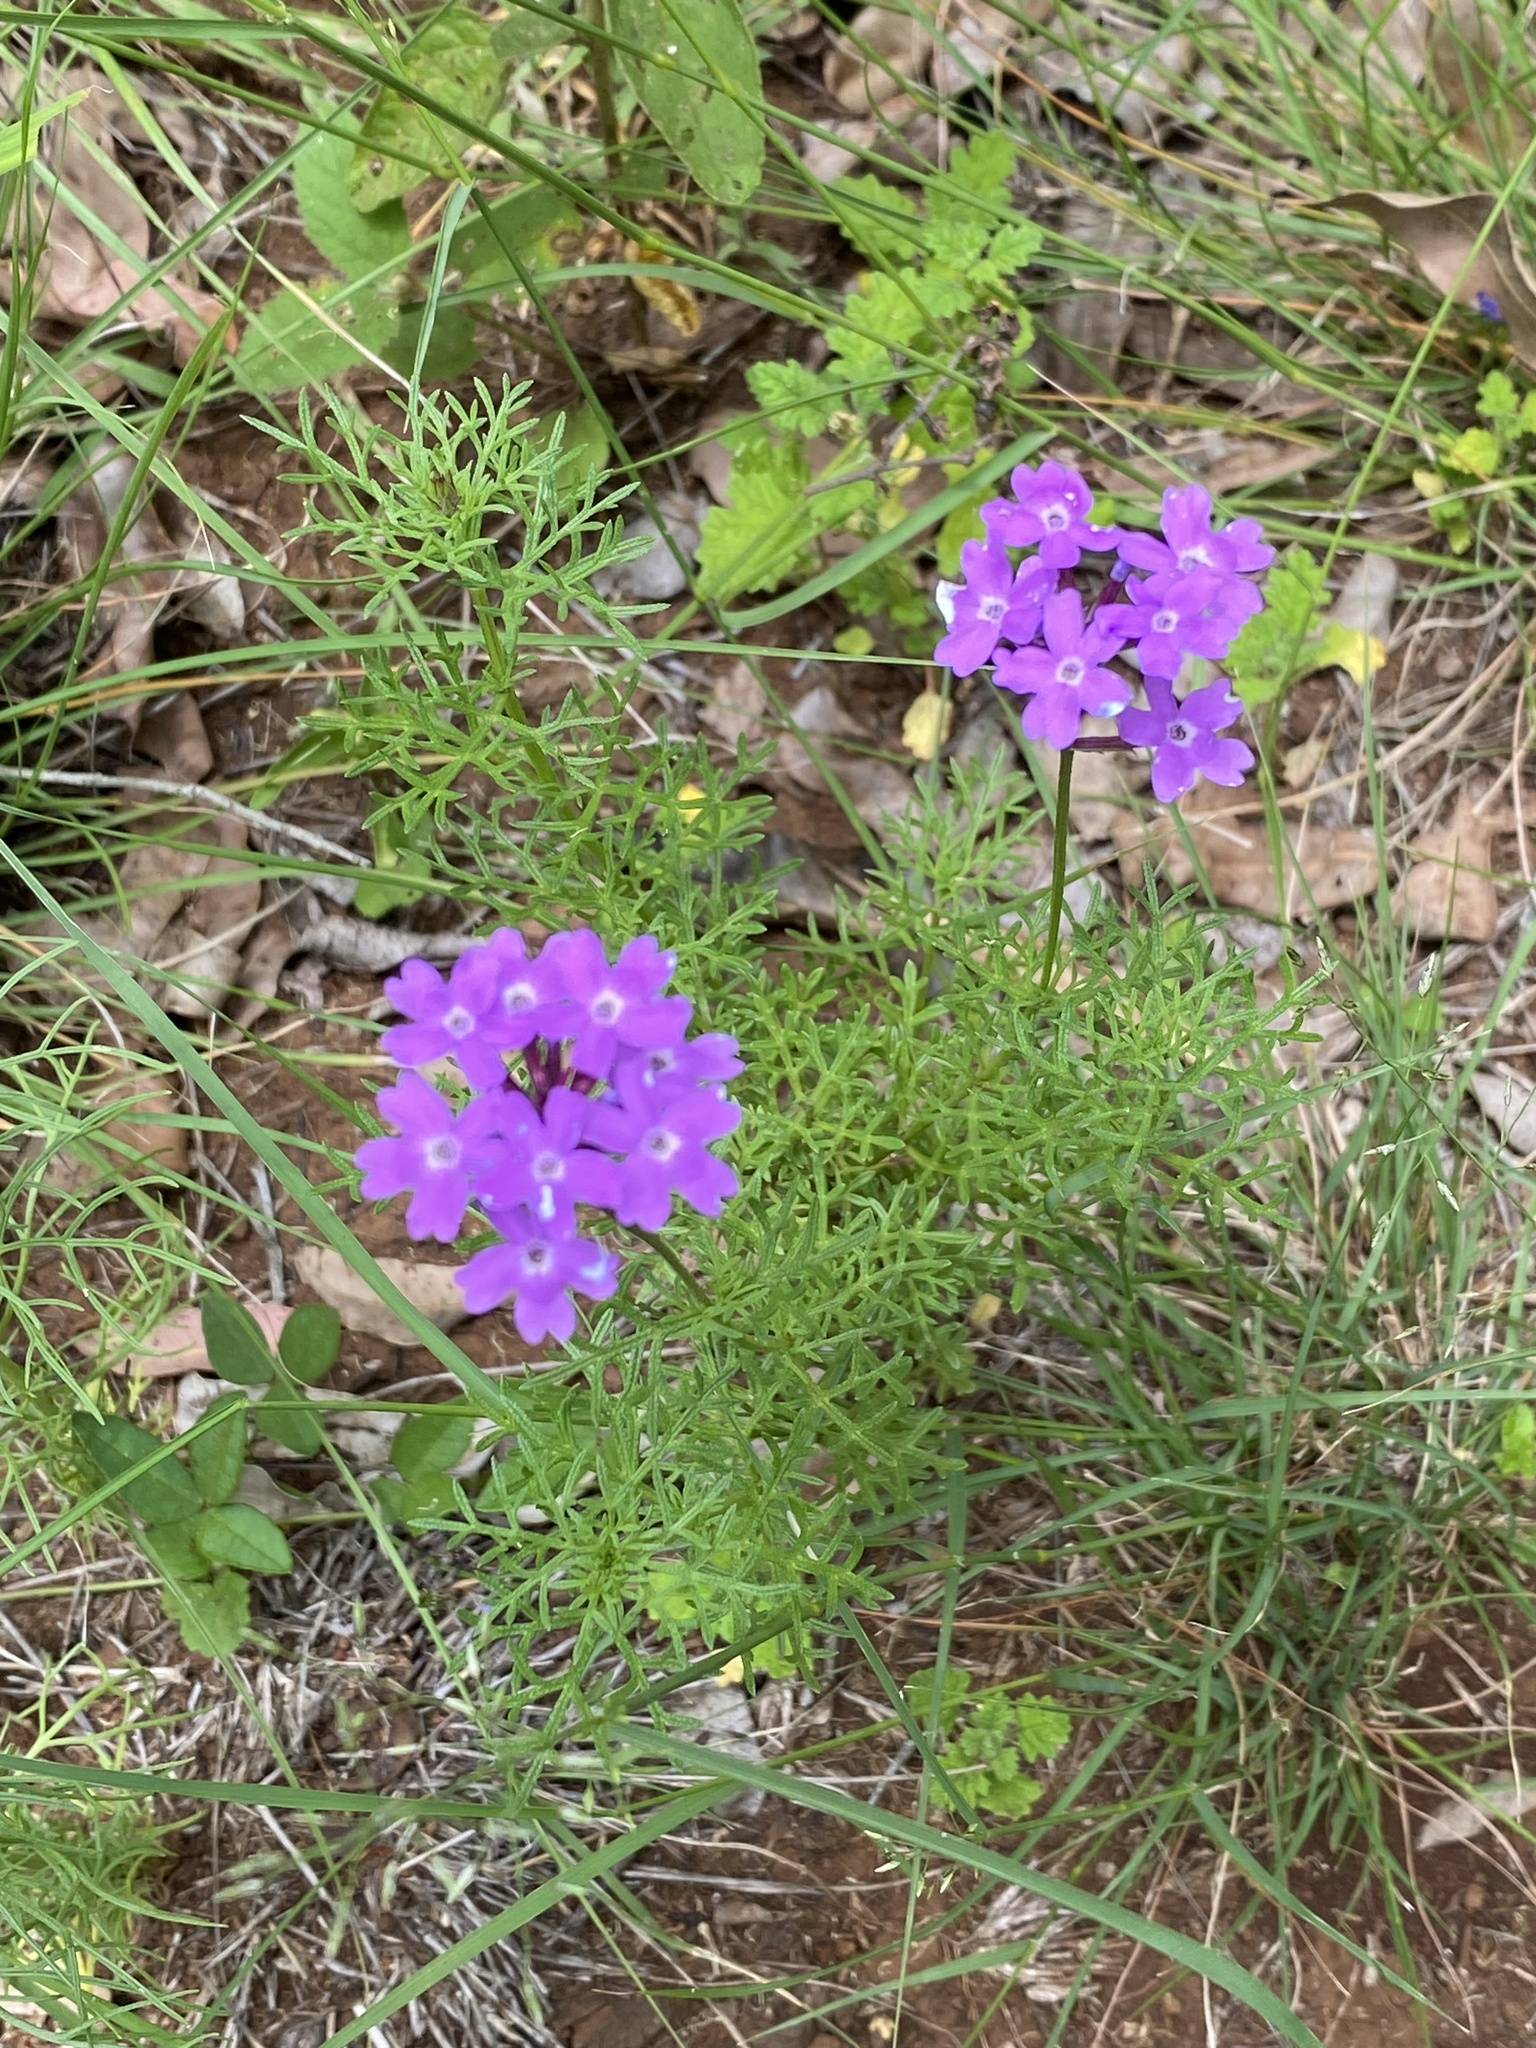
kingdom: Plantae
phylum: Tracheophyta
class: Magnoliopsida
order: Lamiales
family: Verbenaceae
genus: Verbena
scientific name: Verbena aristigera
